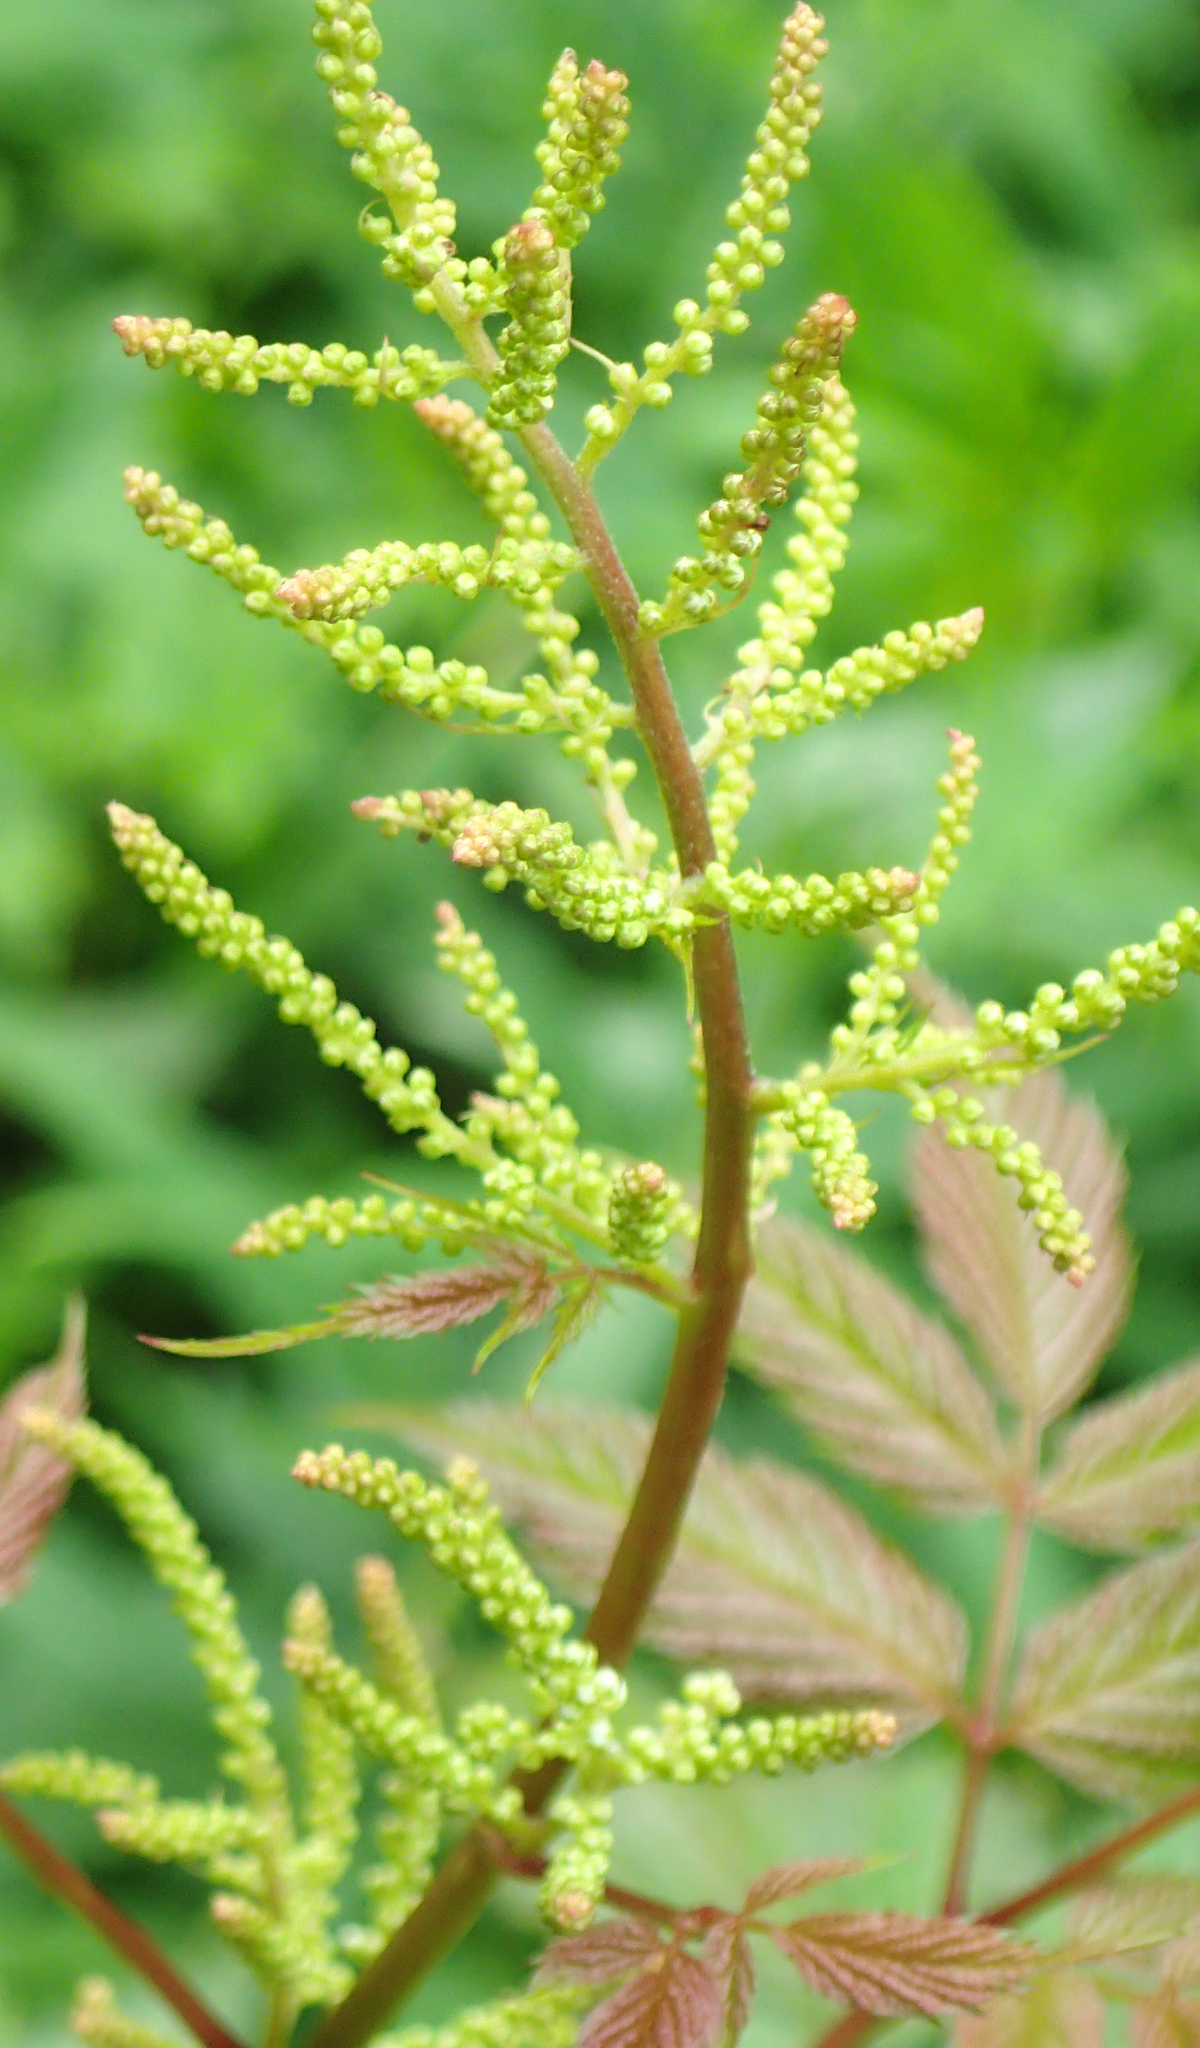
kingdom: Plantae
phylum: Tracheophyta
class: Magnoliopsida
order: Rosales
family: Rosaceae
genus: Aruncus
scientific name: Aruncus dioicus
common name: Buck's-beard
